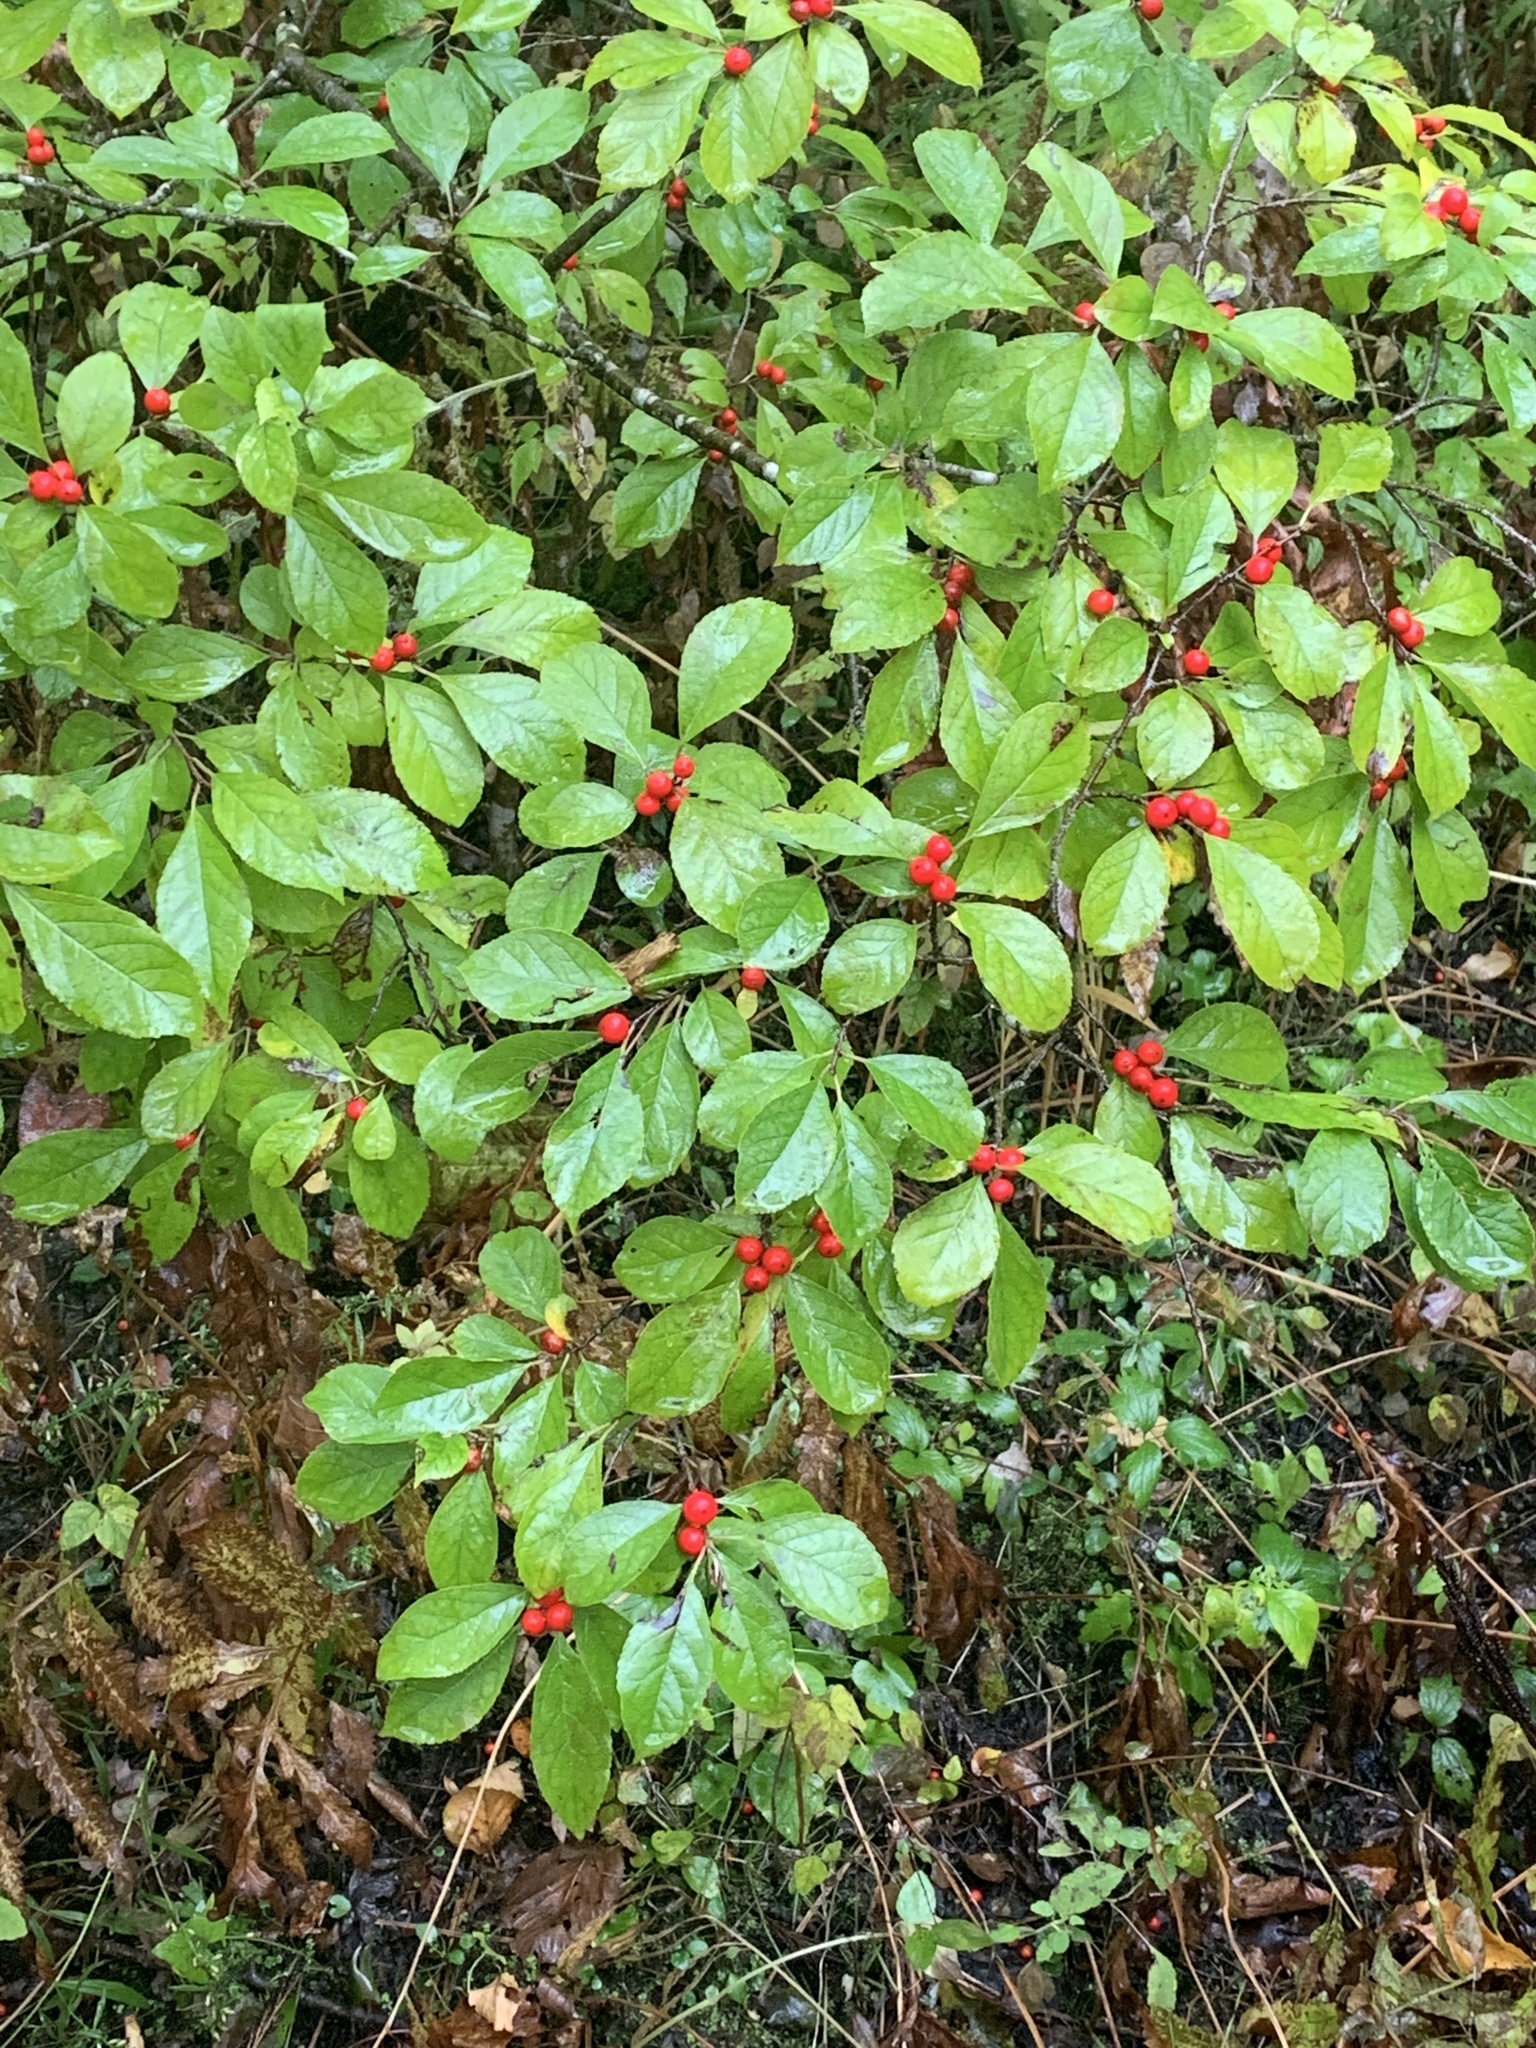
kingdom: Plantae
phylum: Tracheophyta
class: Magnoliopsida
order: Aquifoliales
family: Aquifoliaceae
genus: Ilex
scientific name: Ilex verticillata
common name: Virginia winterberry
